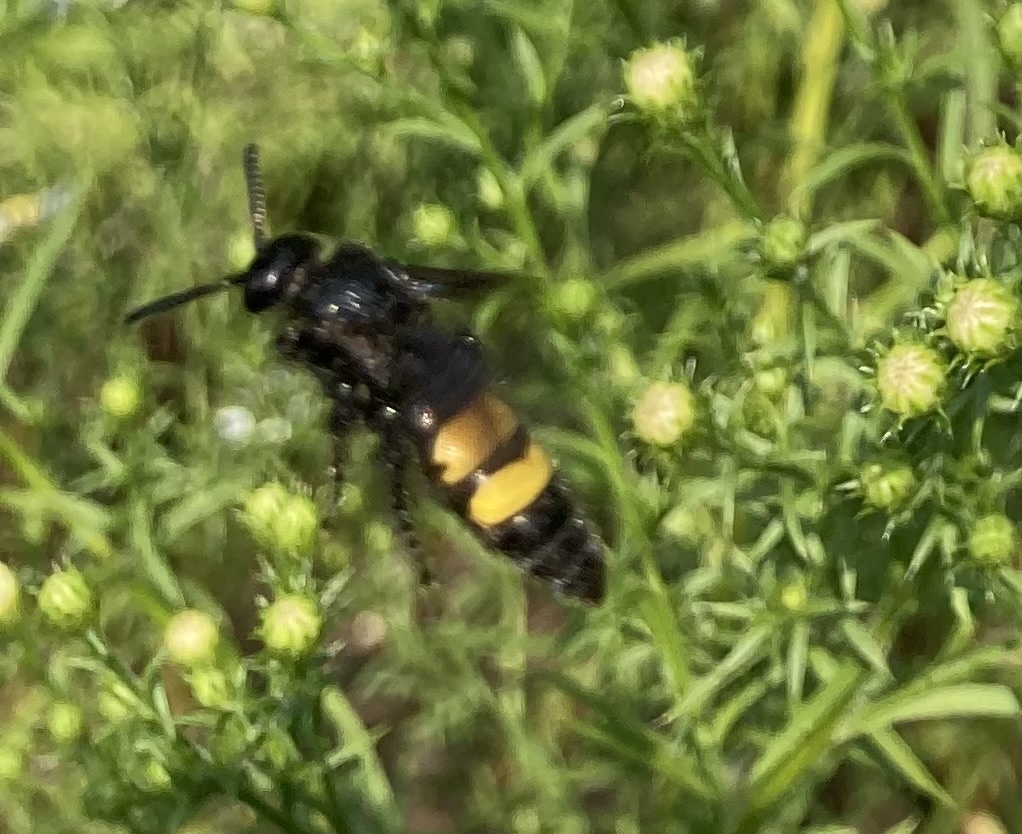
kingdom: Animalia
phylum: Arthropoda
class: Insecta
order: Hymenoptera
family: Scoliidae
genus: Scolia
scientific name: Scolia hirta
